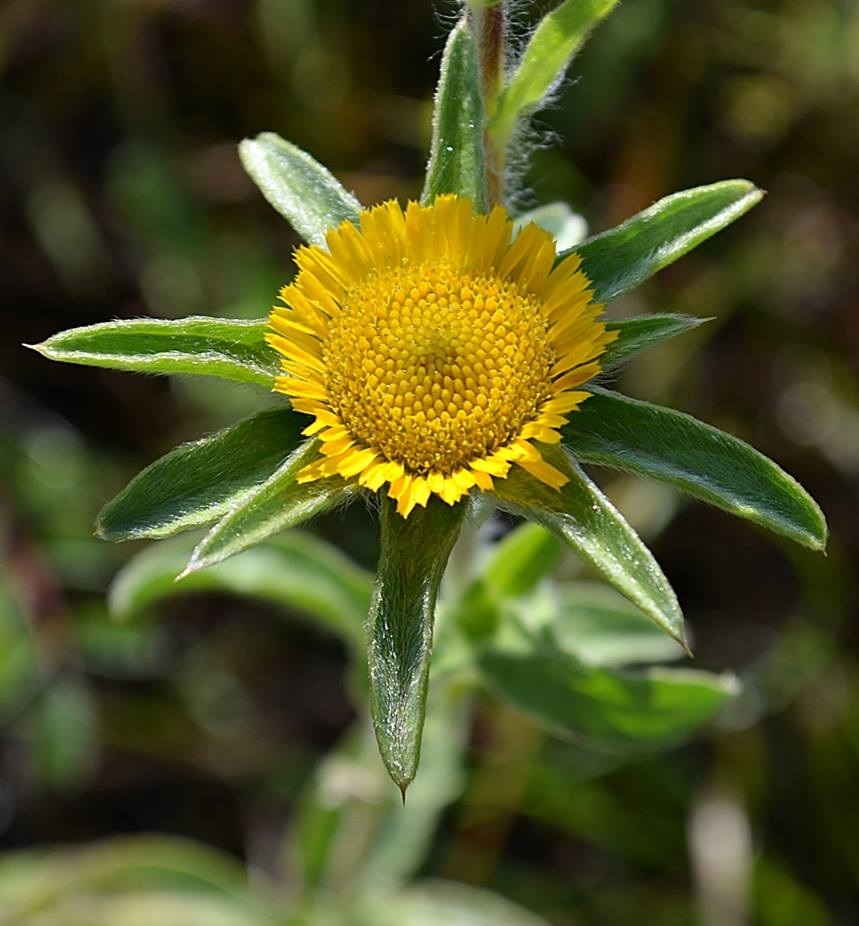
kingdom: Plantae
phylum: Tracheophyta
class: Magnoliopsida
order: Asterales
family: Asteraceae
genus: Pallenis
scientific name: Pallenis spinosa
